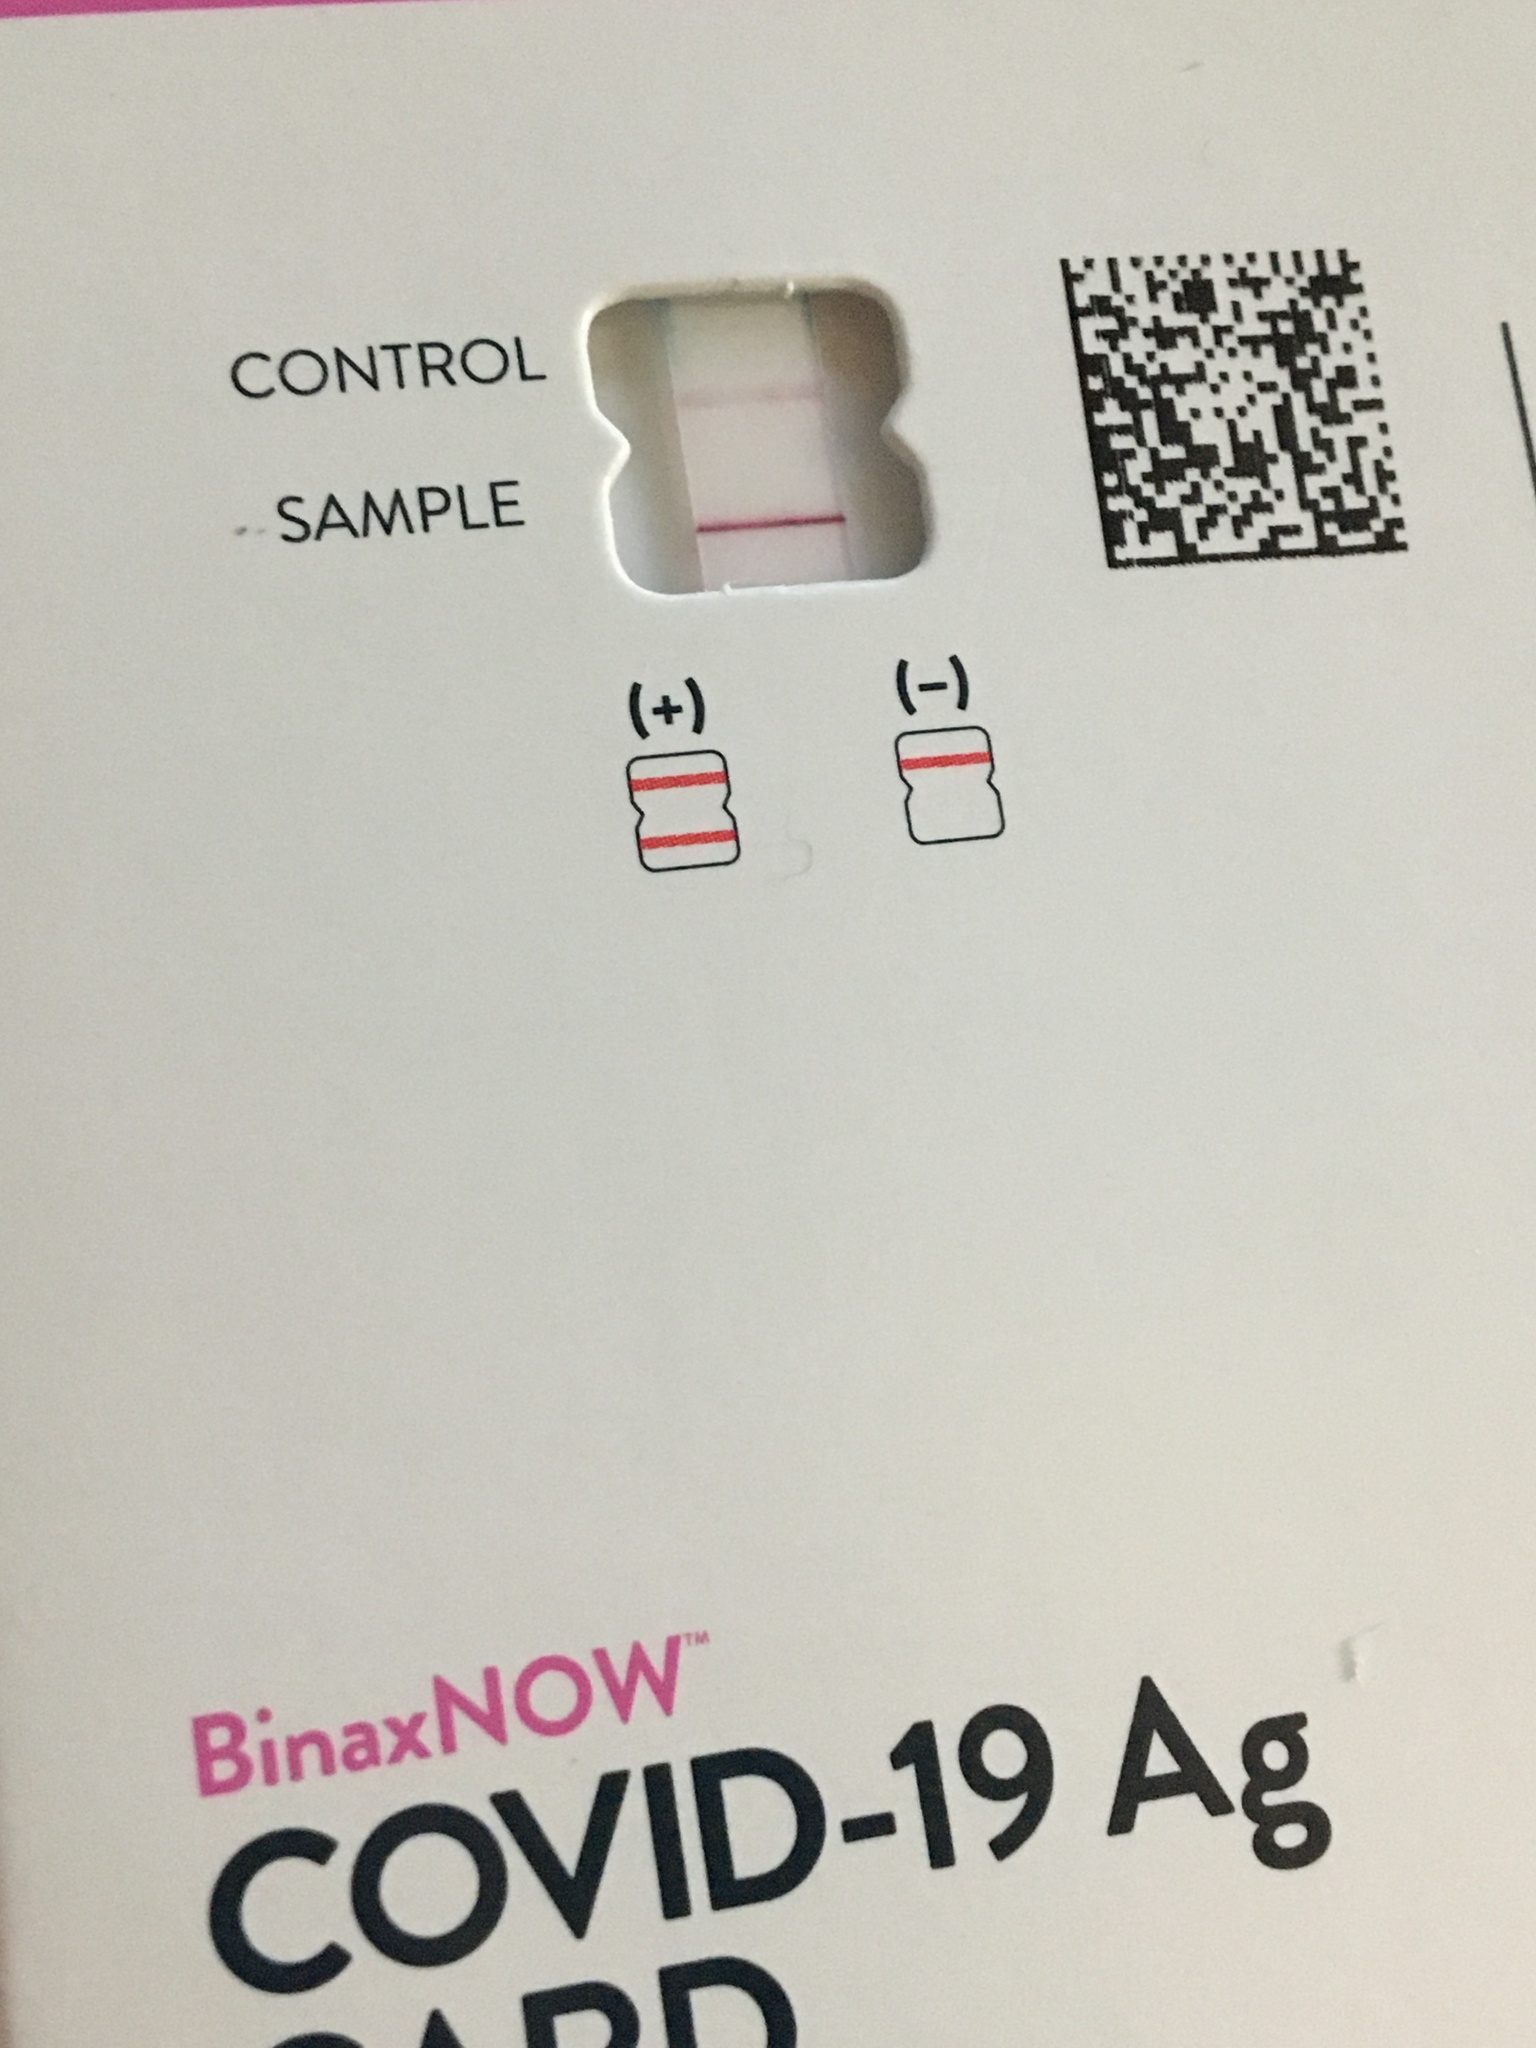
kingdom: Viruses
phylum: Pisuviricota
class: Pisoniviricetes
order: Nidovirales
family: Coronaviridae
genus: Betacoronavirus
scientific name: Betacoronavirus
